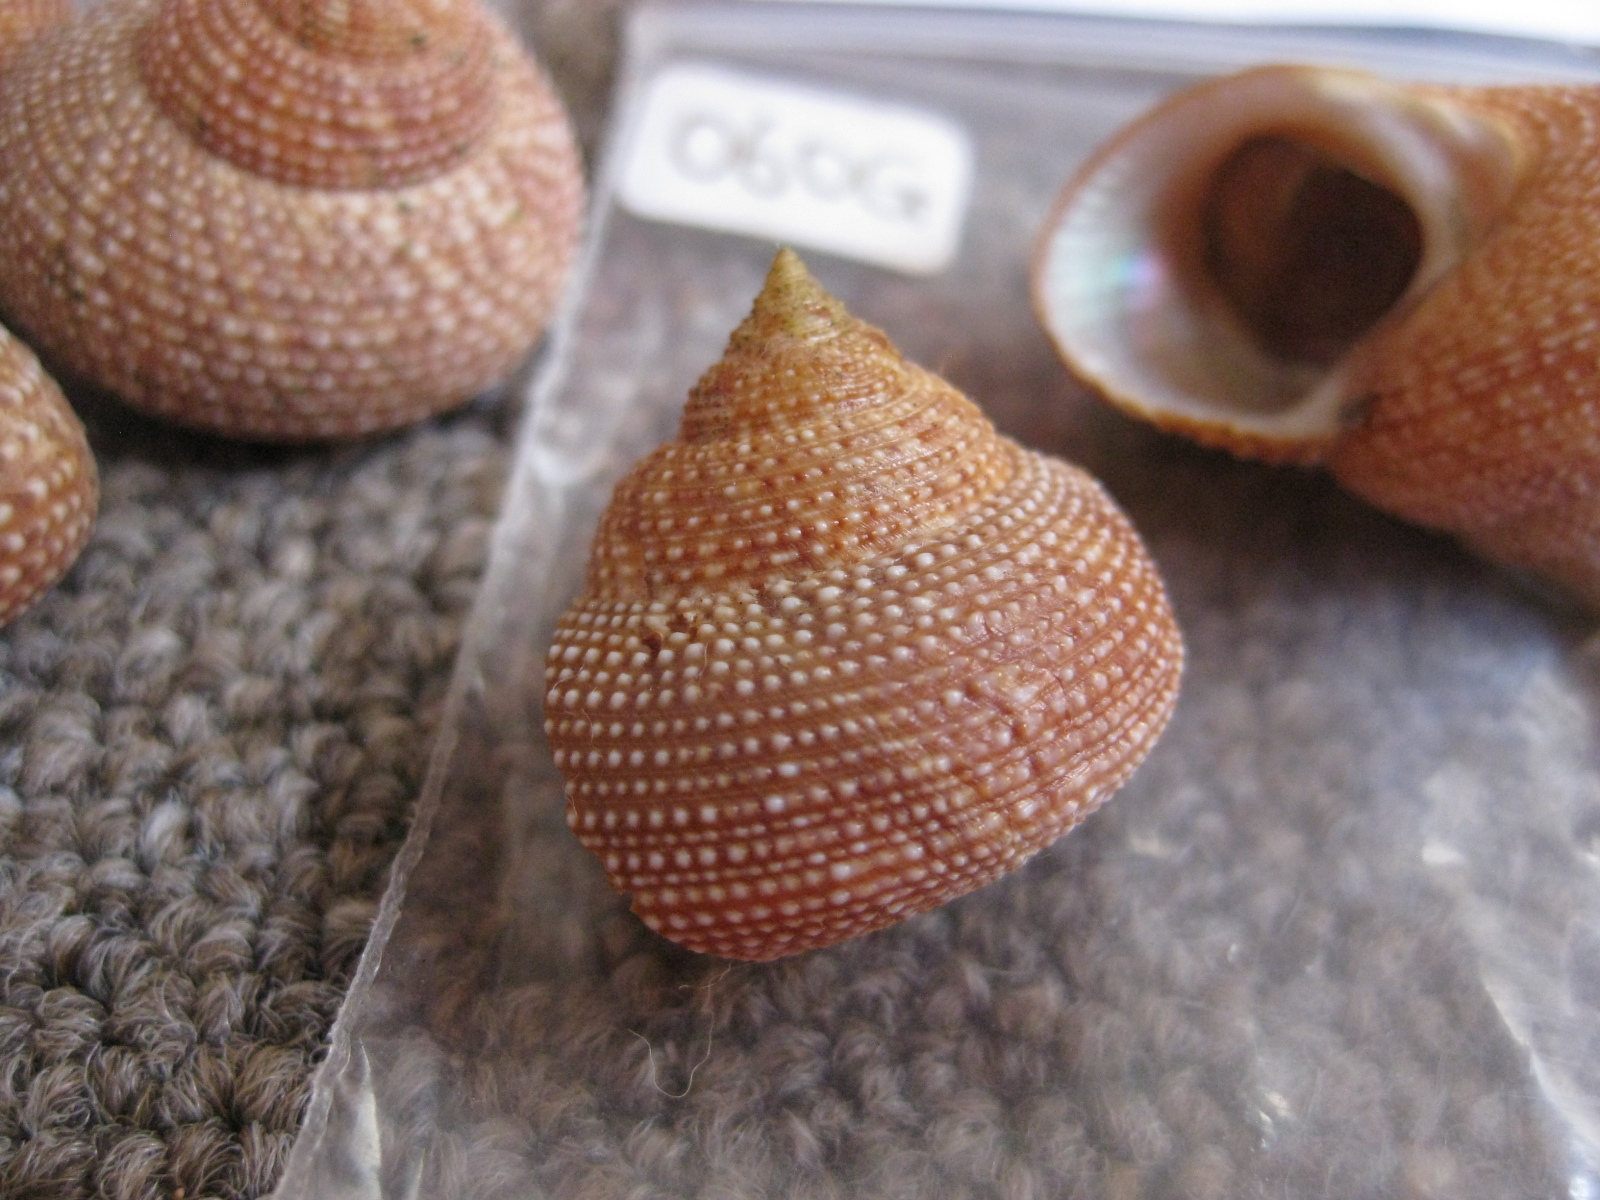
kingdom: Animalia
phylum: Mollusca
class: Gastropoda
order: Trochida
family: Calliostomatidae
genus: Maurea
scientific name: Maurea punctulata
